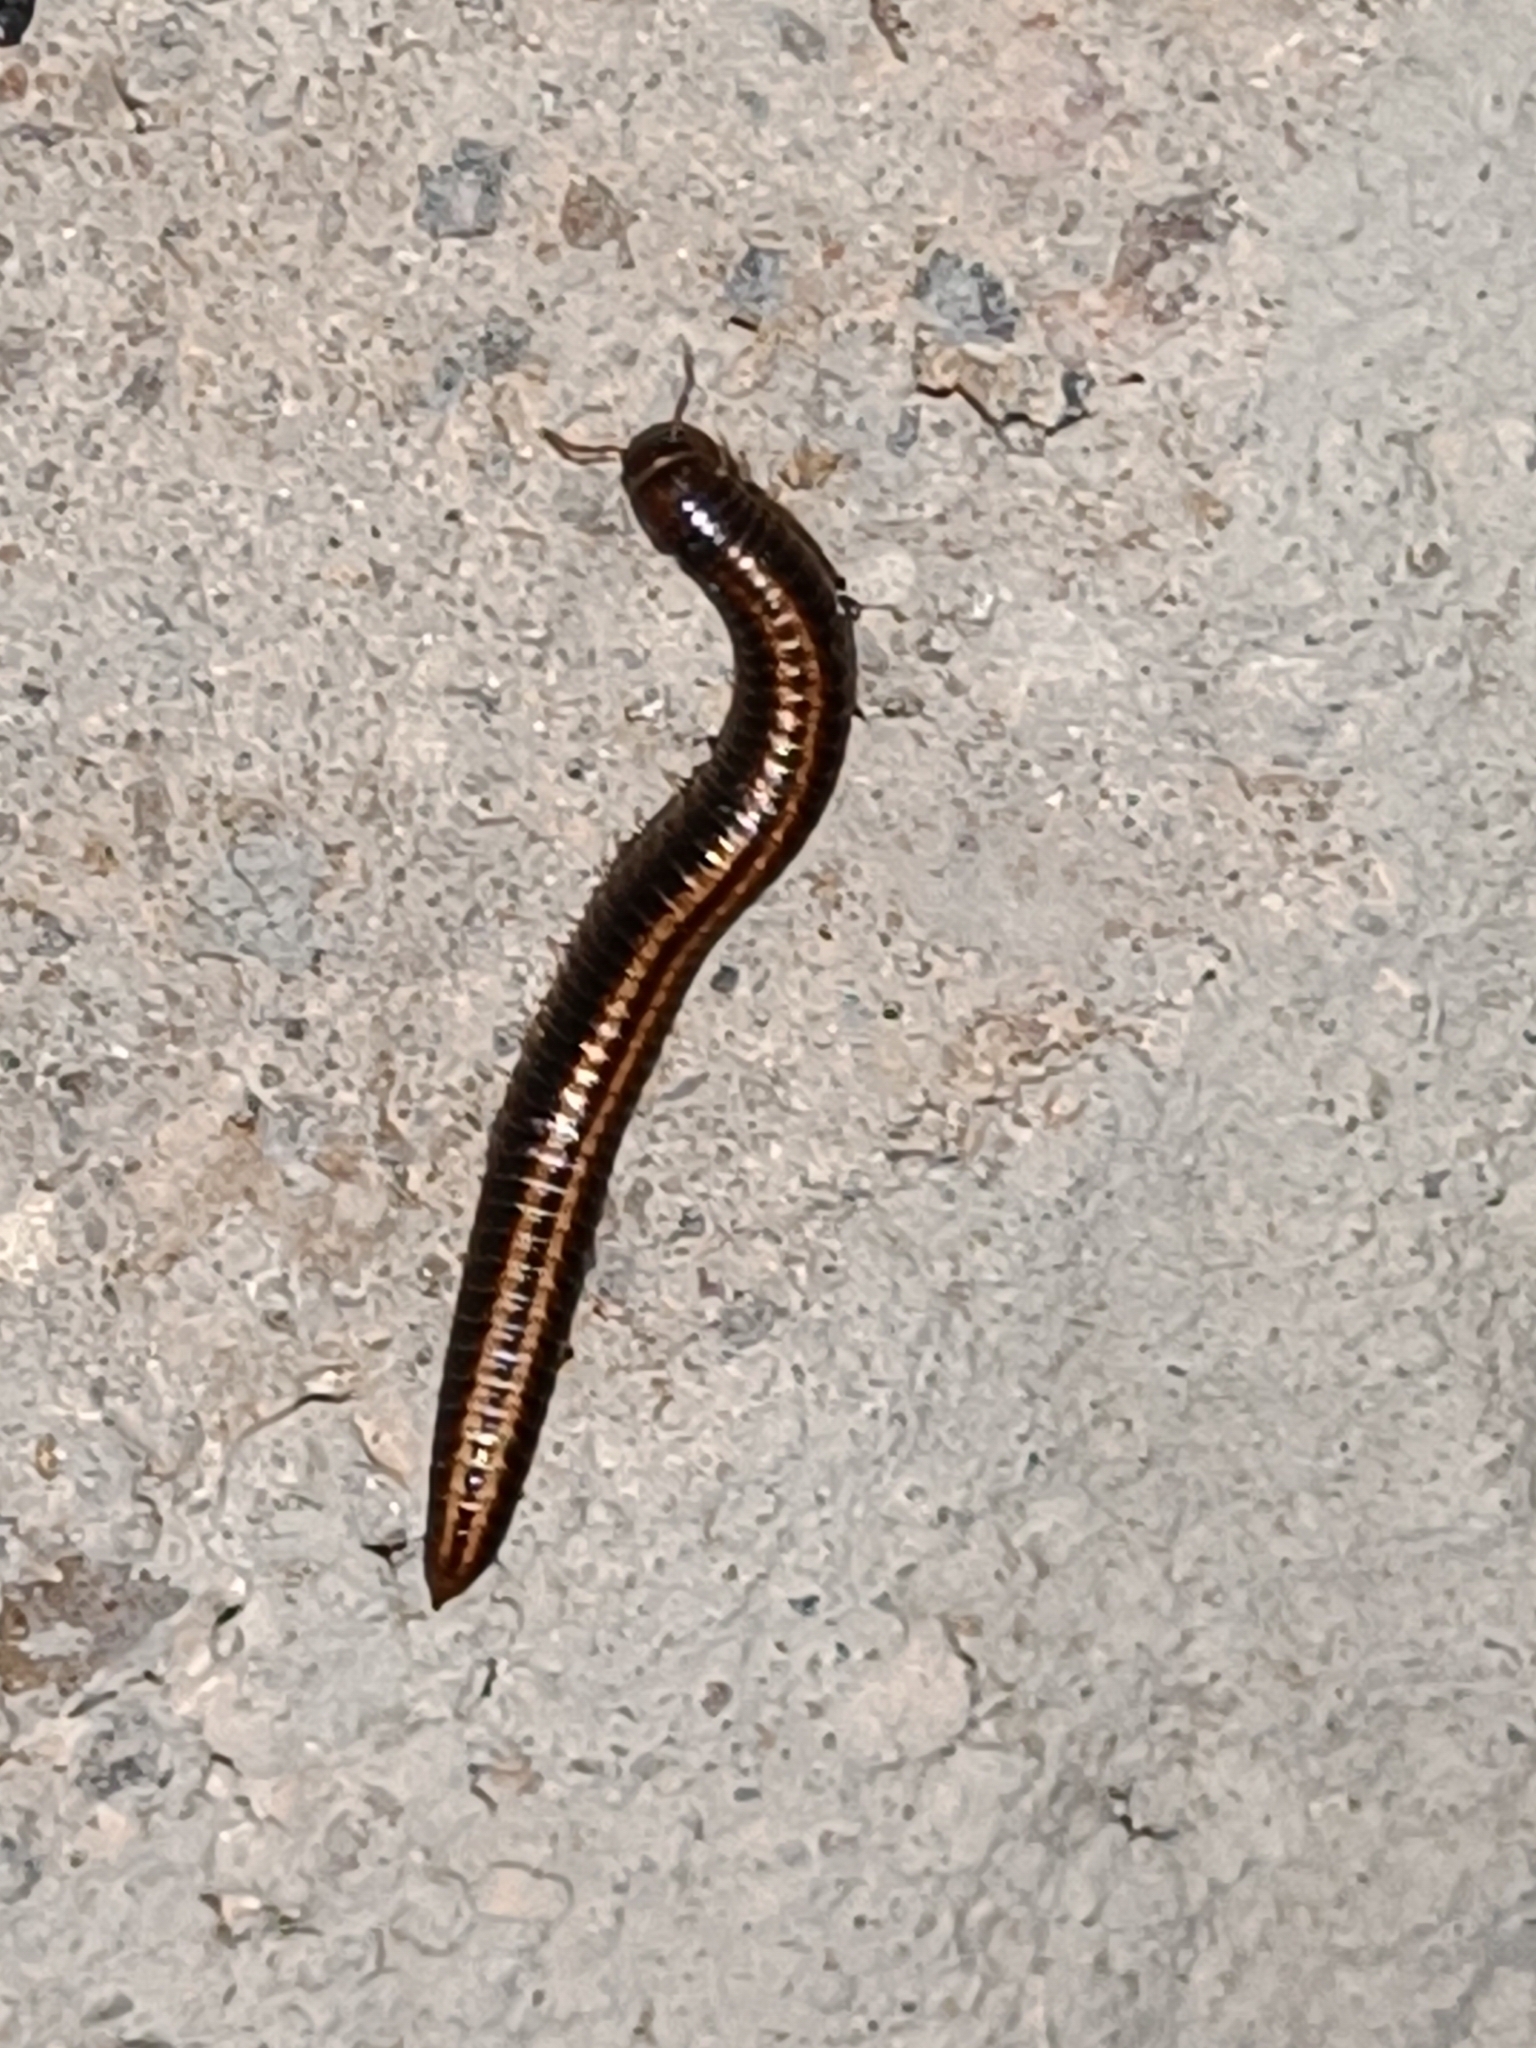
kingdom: Animalia
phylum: Arthropoda
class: Diplopoda
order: Julida
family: Julidae
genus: Ommatoiulus
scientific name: Ommatoiulus sabulosus
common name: Striped millipede
